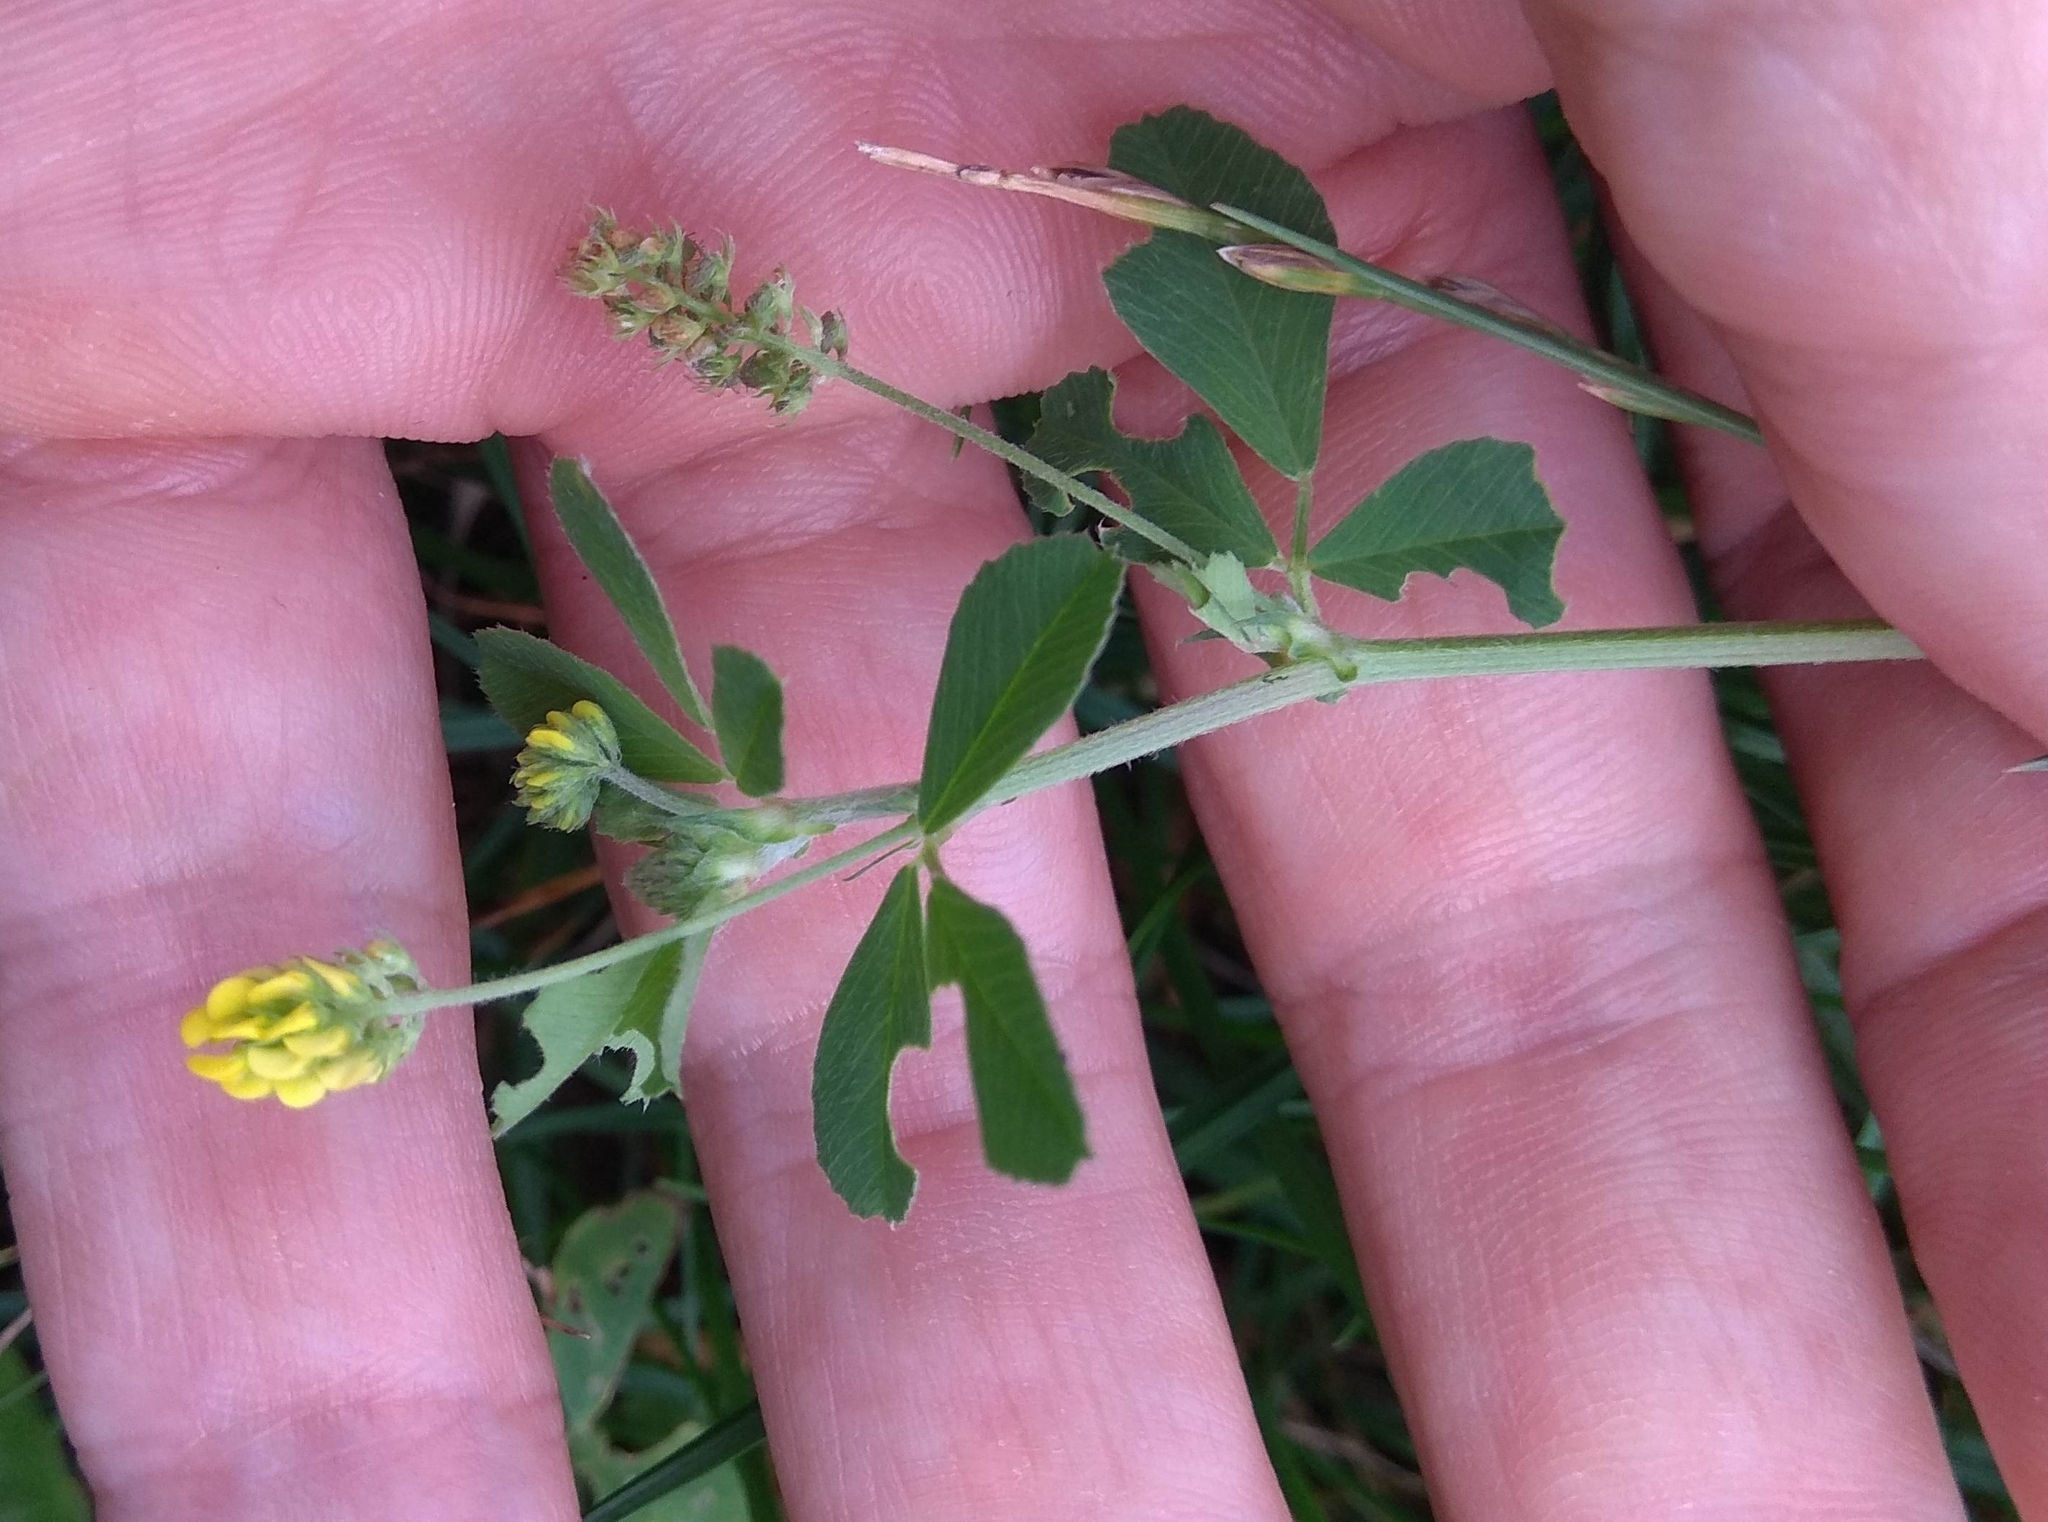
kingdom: Plantae
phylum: Tracheophyta
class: Magnoliopsida
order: Fabales
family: Fabaceae
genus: Medicago
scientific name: Medicago lupulina
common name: Black medick
